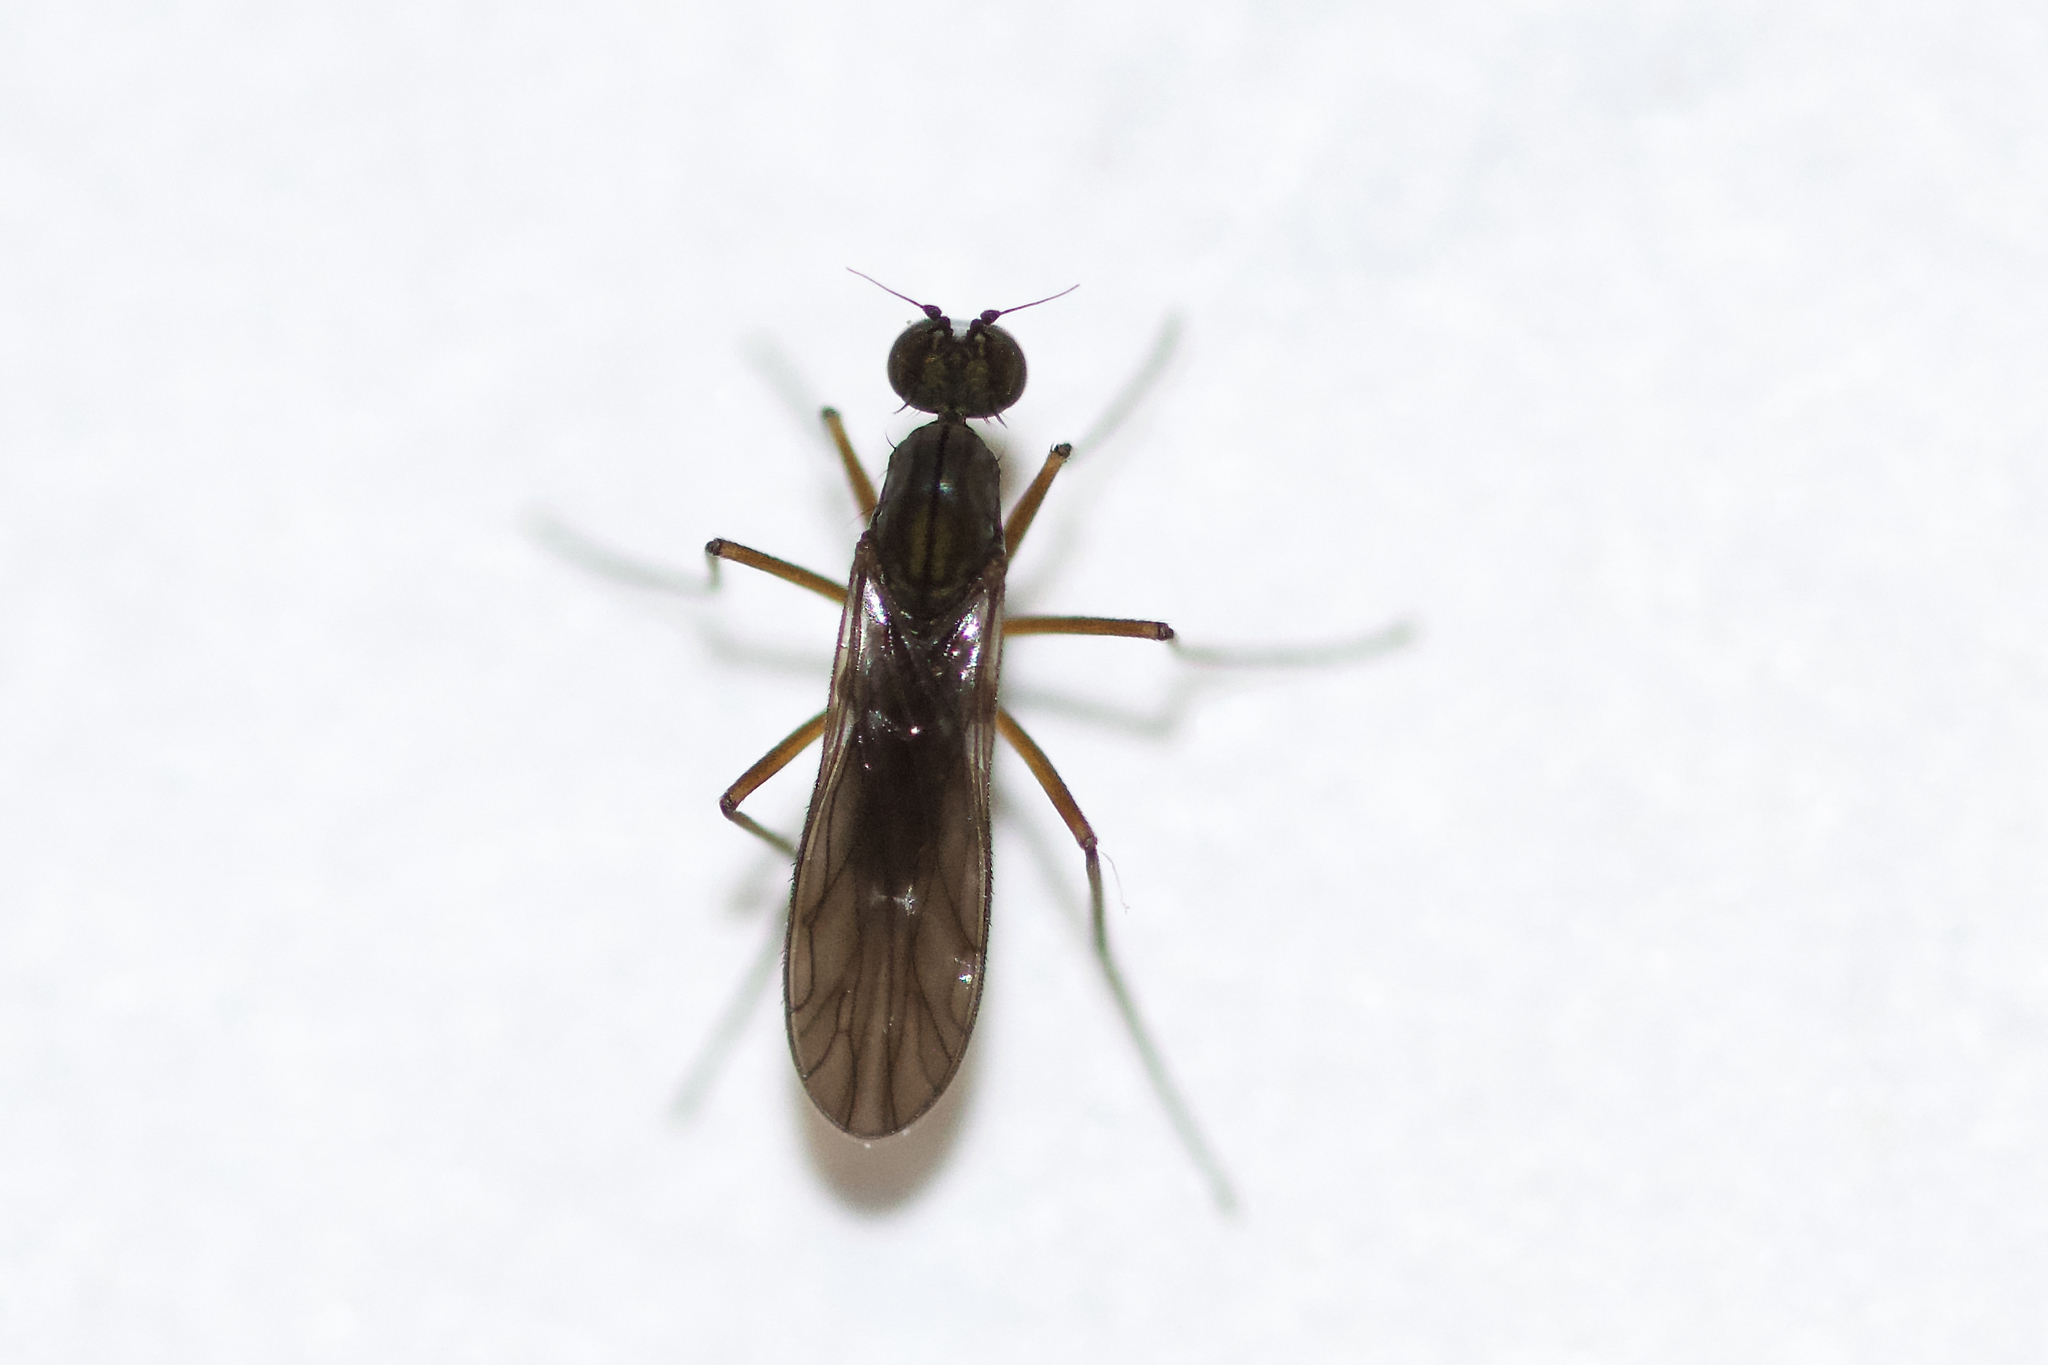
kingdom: Animalia
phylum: Arthropoda
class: Insecta
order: Diptera
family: Empididae
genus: Clinocera
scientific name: Clinocera lineata
